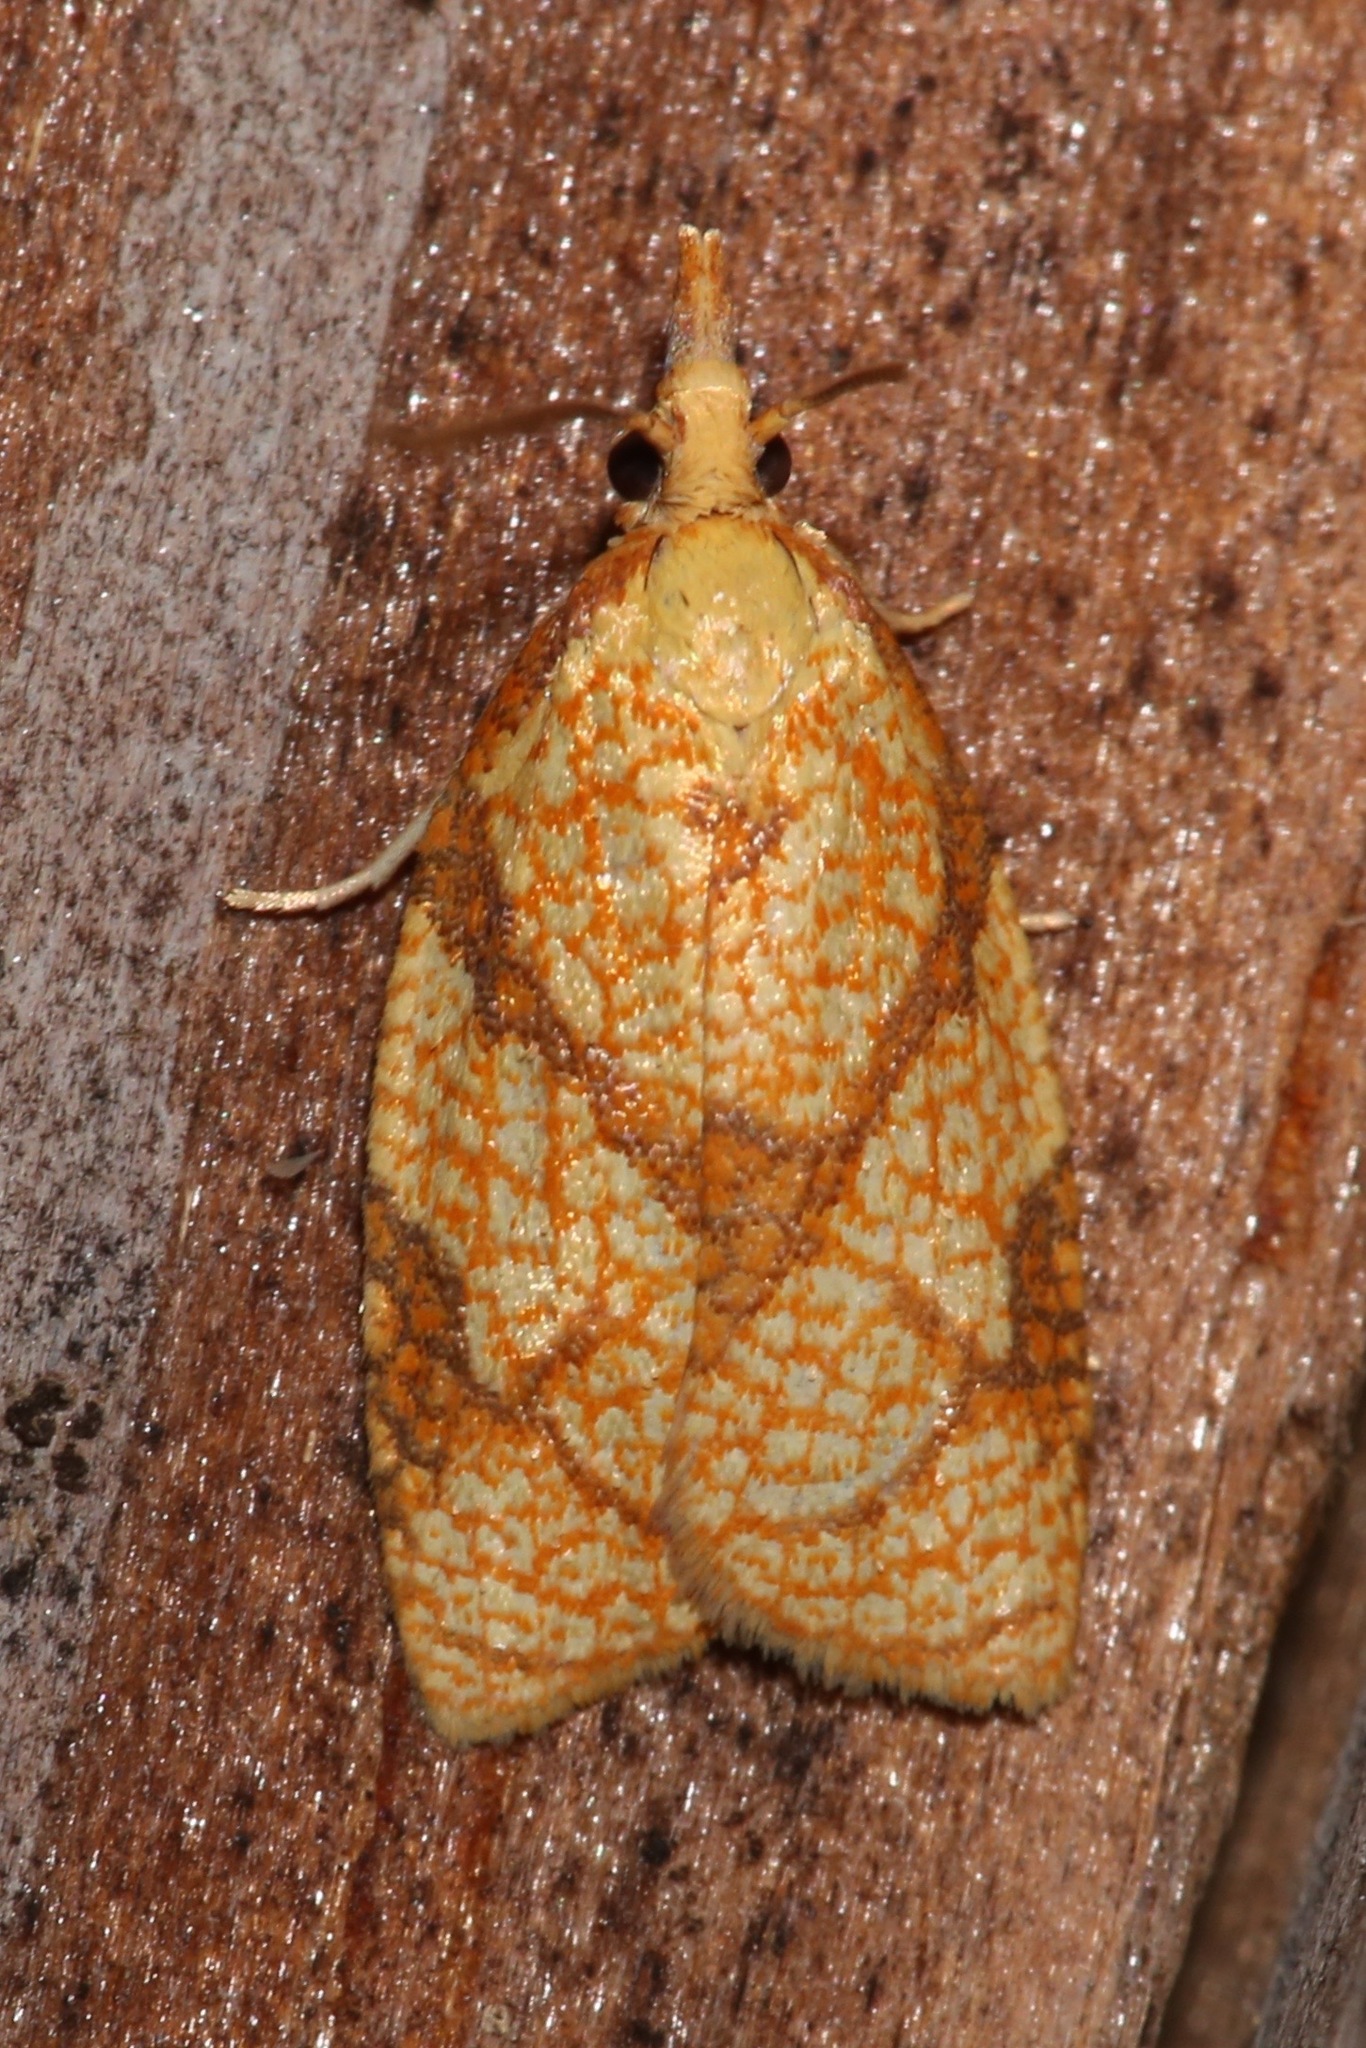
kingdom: Animalia
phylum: Arthropoda
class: Insecta
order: Lepidoptera
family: Tortricidae
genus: Cenopis
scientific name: Cenopis reticulatana
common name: Reticulated fruitworm moth
